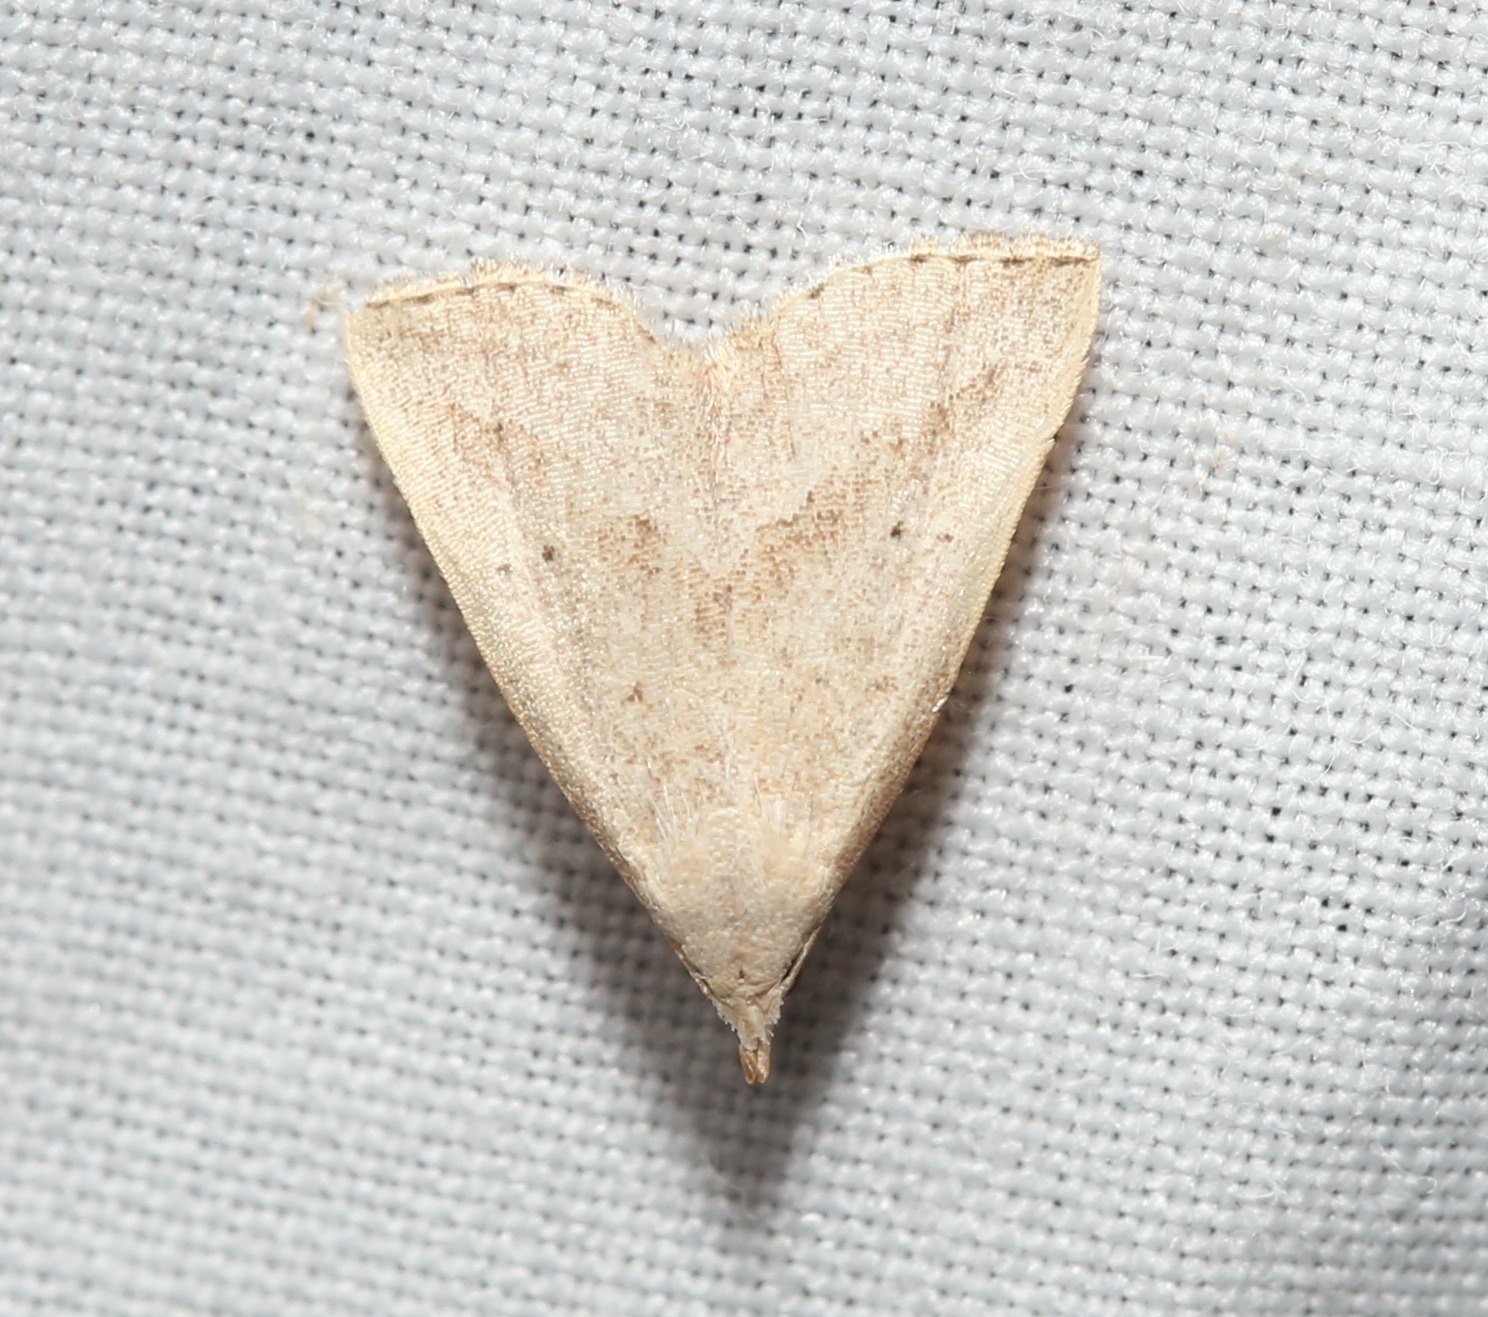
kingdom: Animalia
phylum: Arthropoda
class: Insecta
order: Lepidoptera
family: Erebidae
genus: Macrochilo
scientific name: Macrochilo hypocritalis
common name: Twin-dotted owlet
